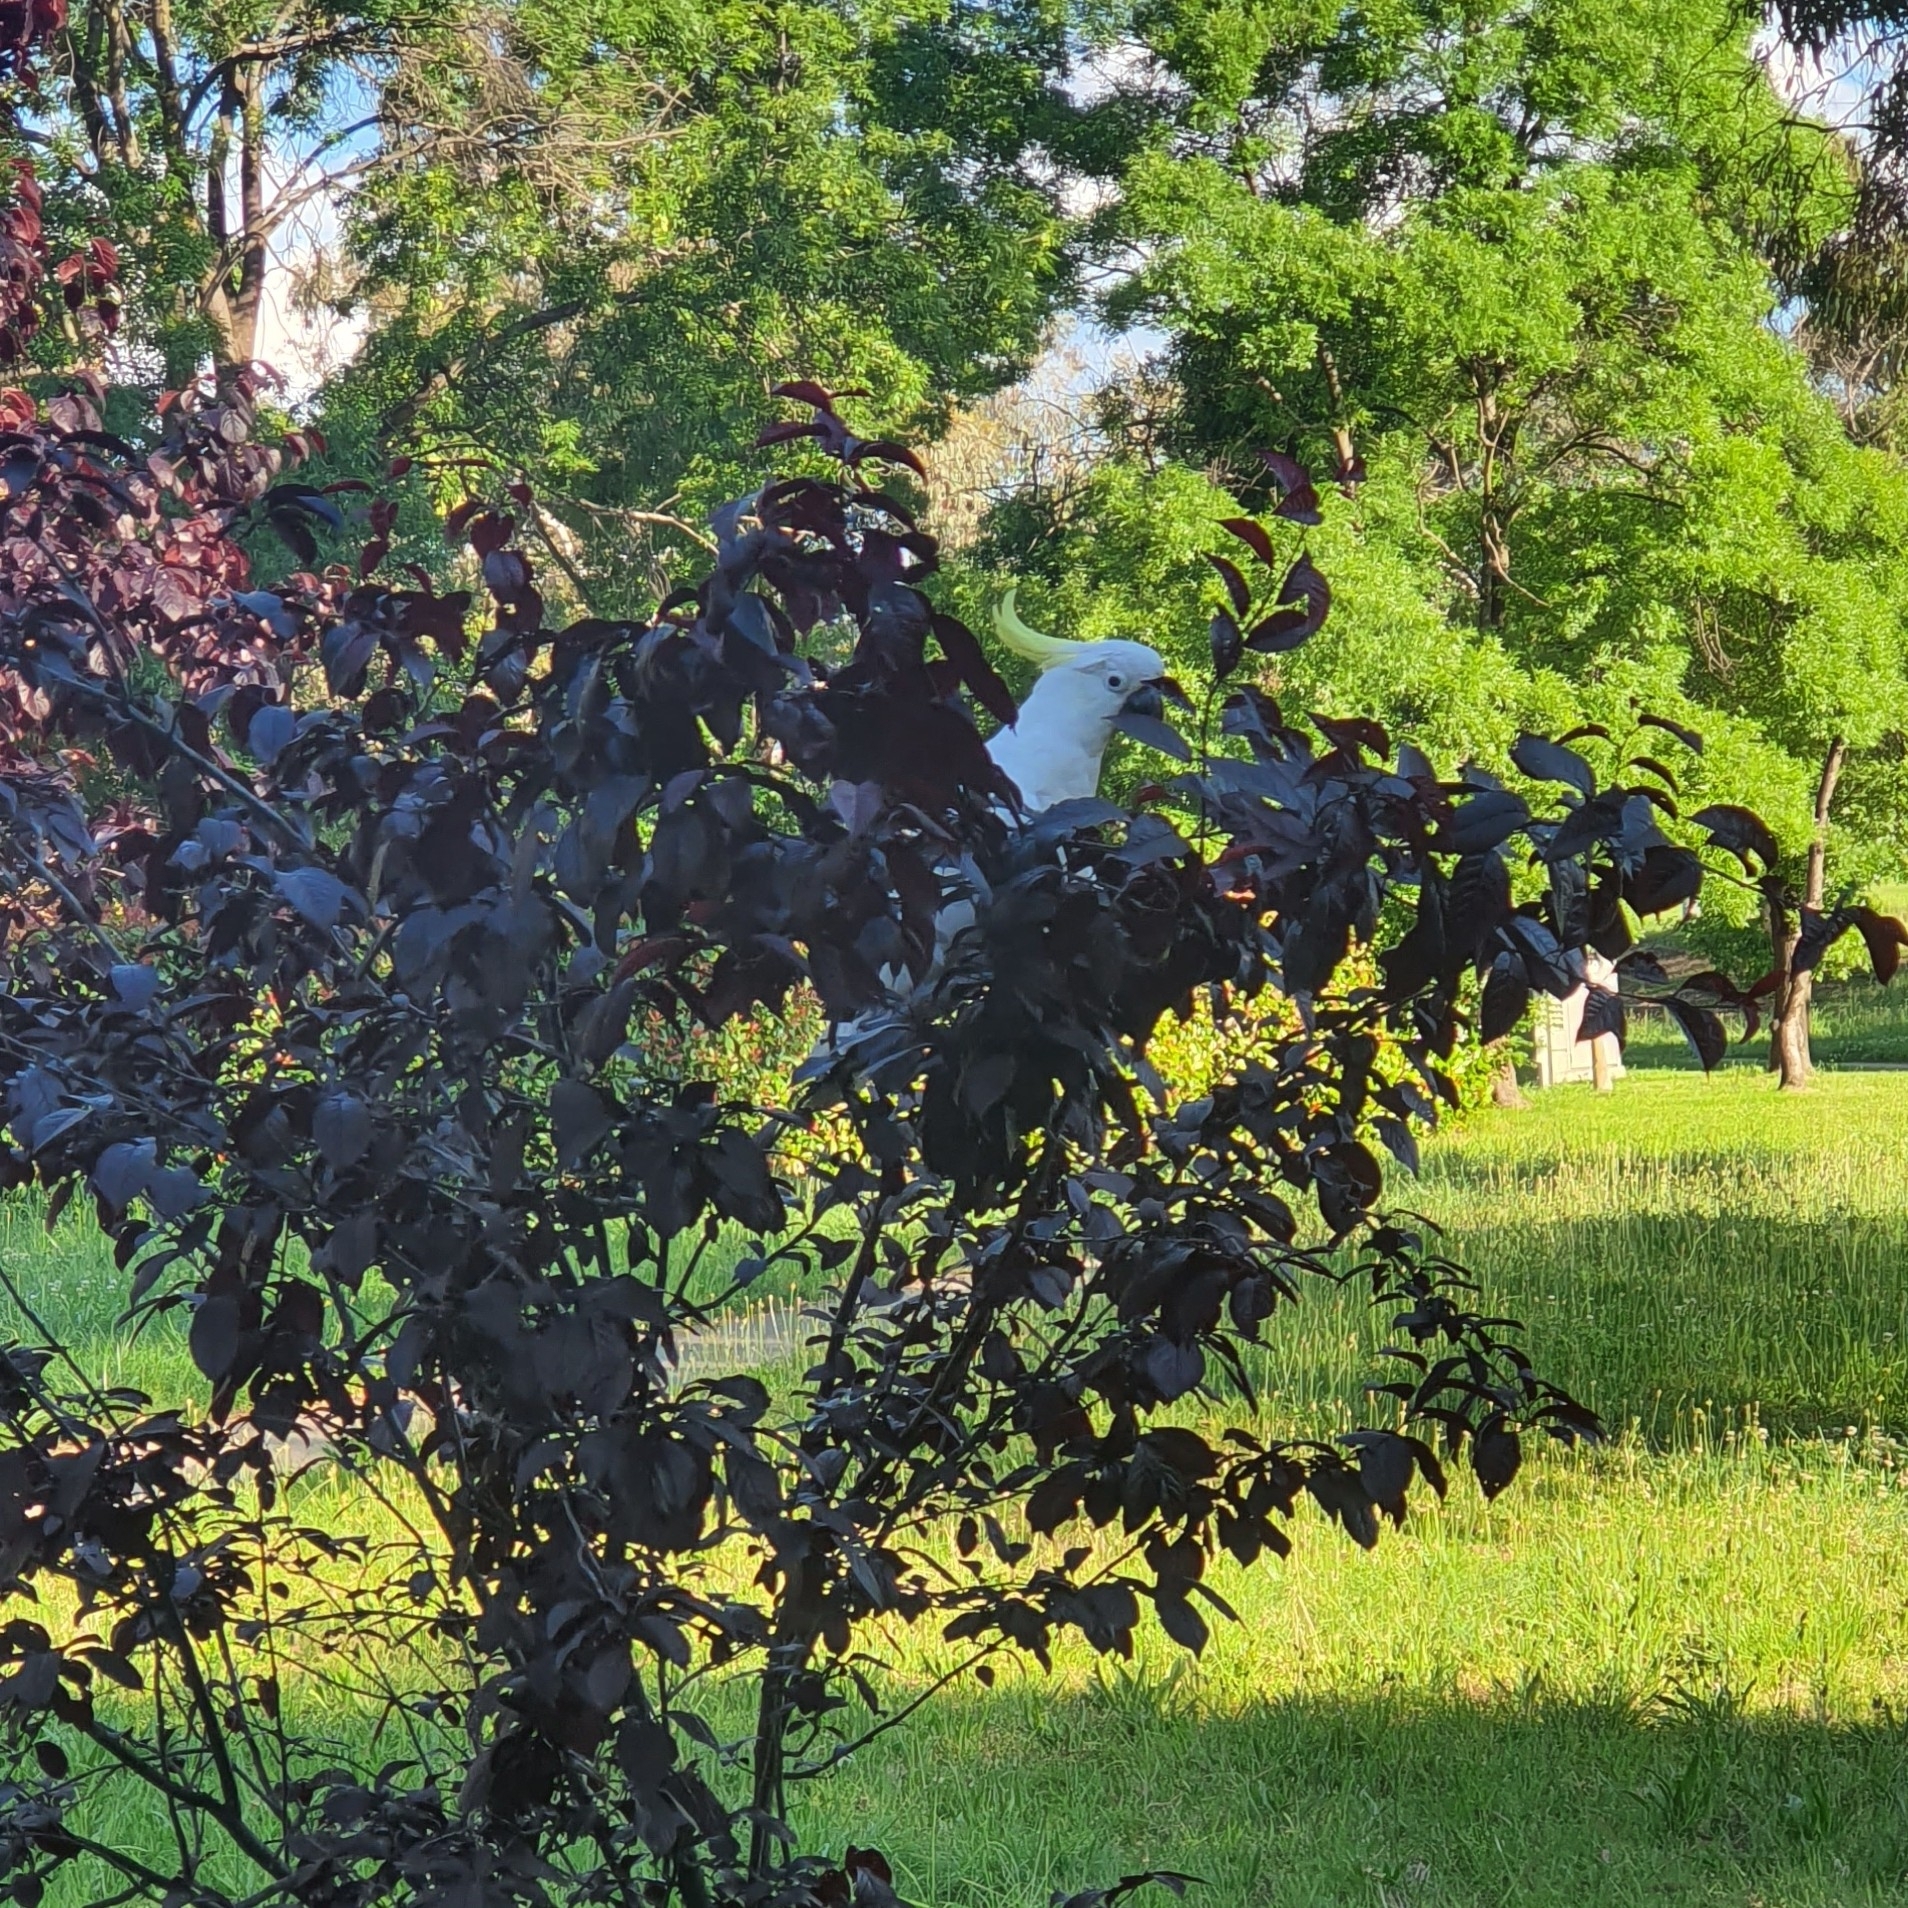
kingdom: Animalia
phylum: Chordata
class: Aves
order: Psittaciformes
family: Psittacidae
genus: Cacatua
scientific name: Cacatua galerita
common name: Sulphur-crested cockatoo
